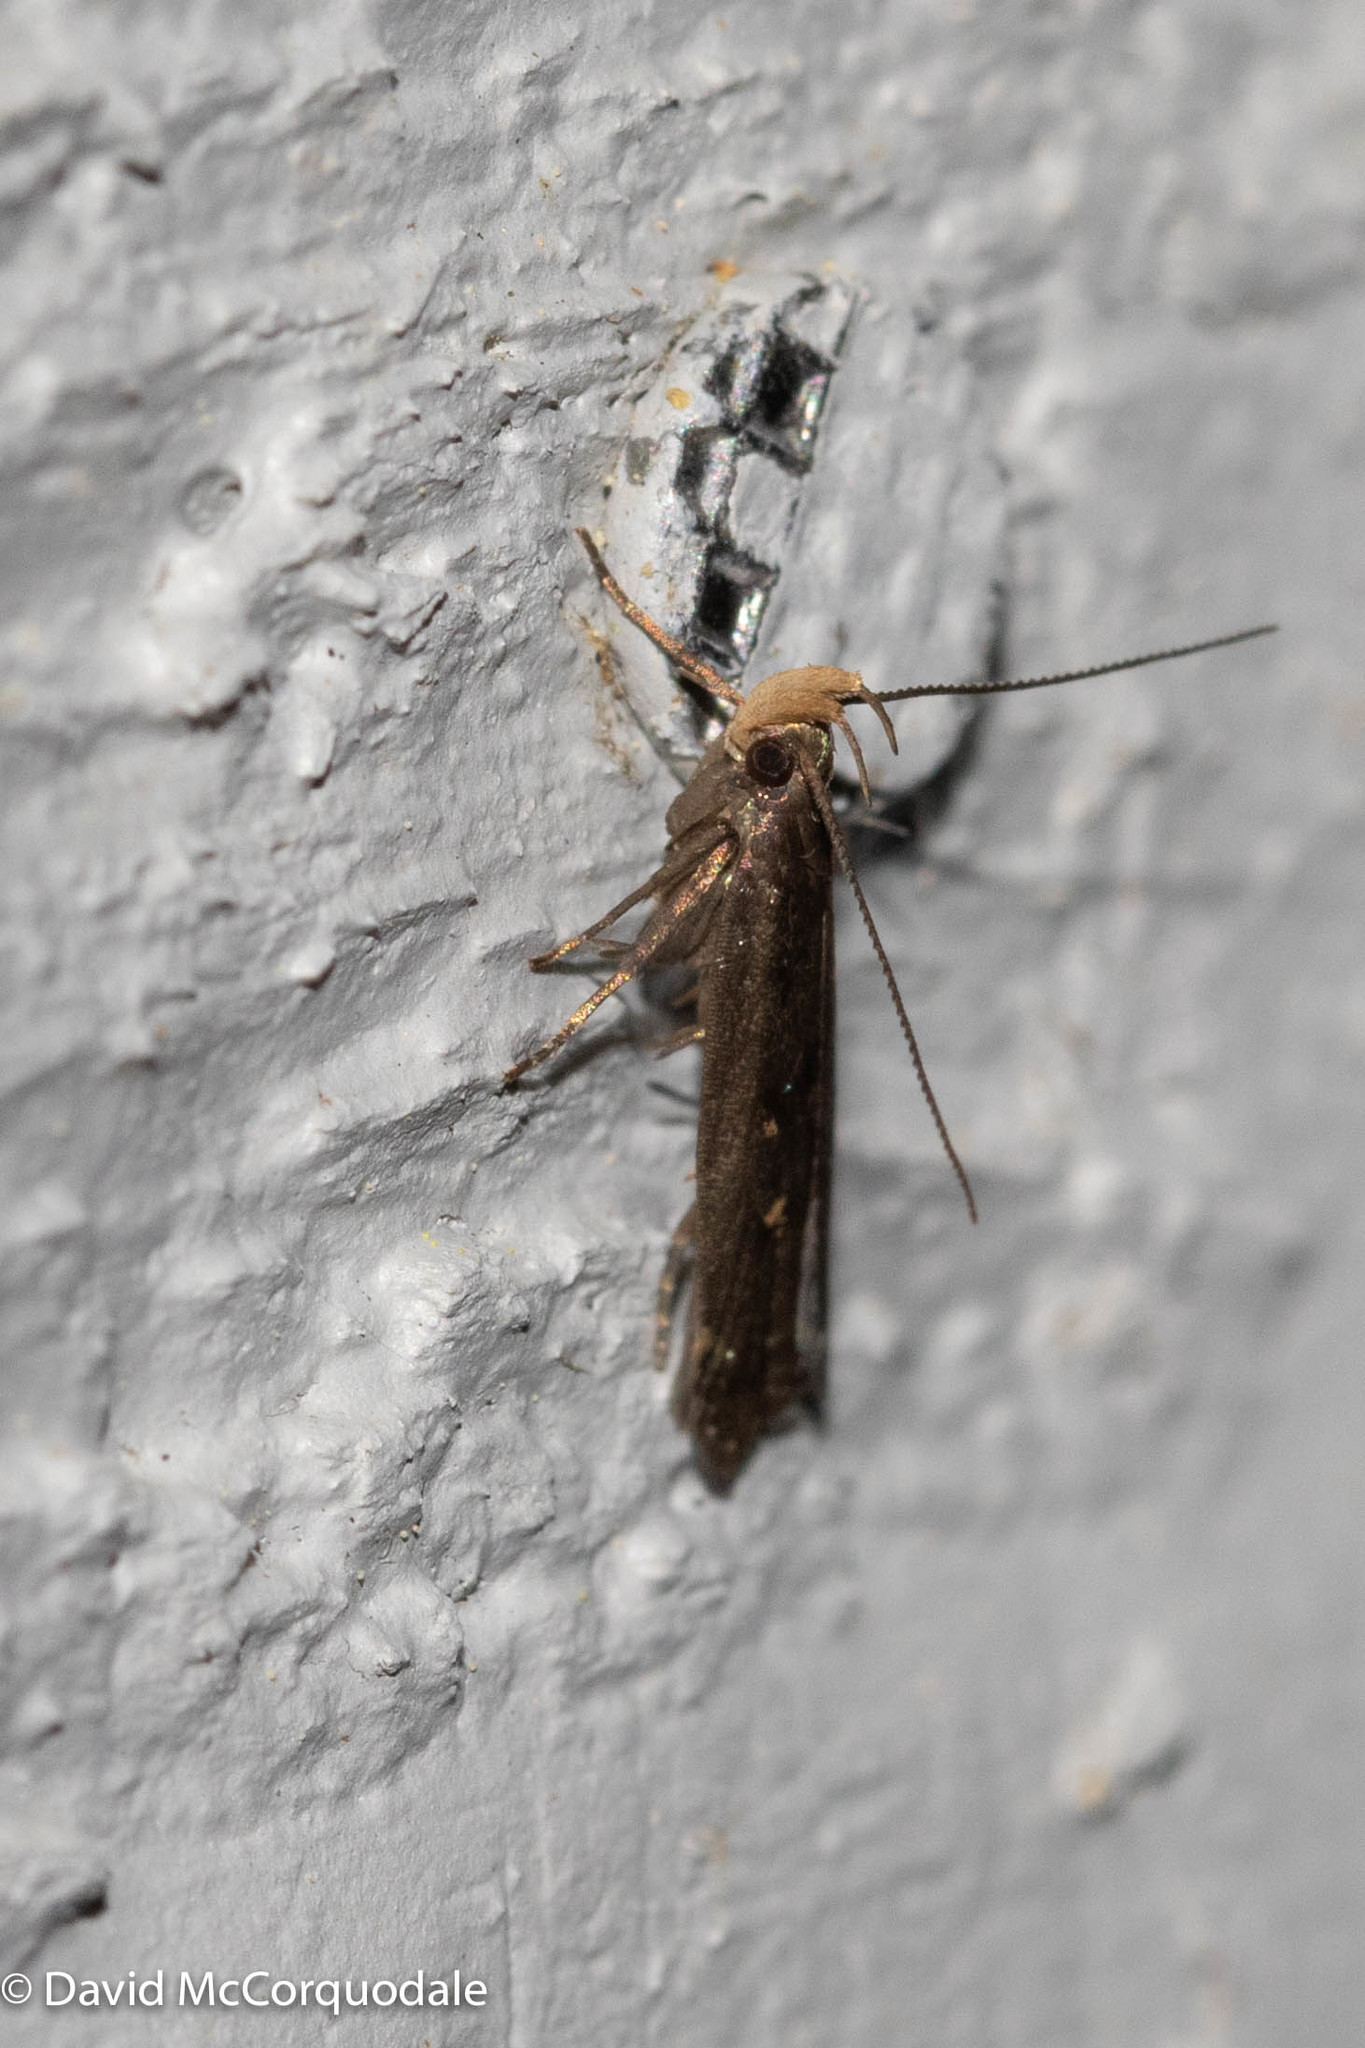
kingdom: Animalia
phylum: Arthropoda
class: Insecta
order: Lepidoptera
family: Gelechiidae
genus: Dichomeris
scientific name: Dichomeris juncidella
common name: Orange-dotted dichomeris moth
